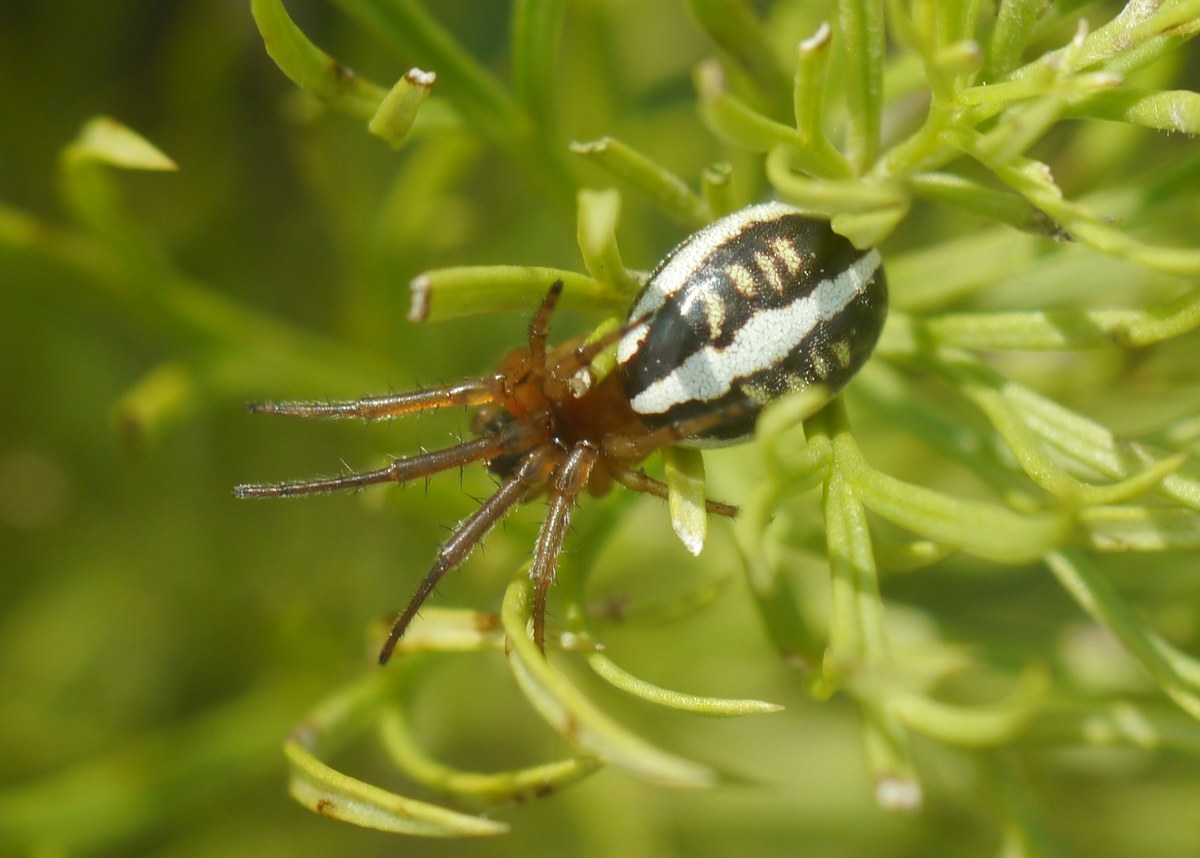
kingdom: Animalia
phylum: Arthropoda
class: Arachnida
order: Araneae
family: Araneidae
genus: Singa
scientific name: Singa lucina
